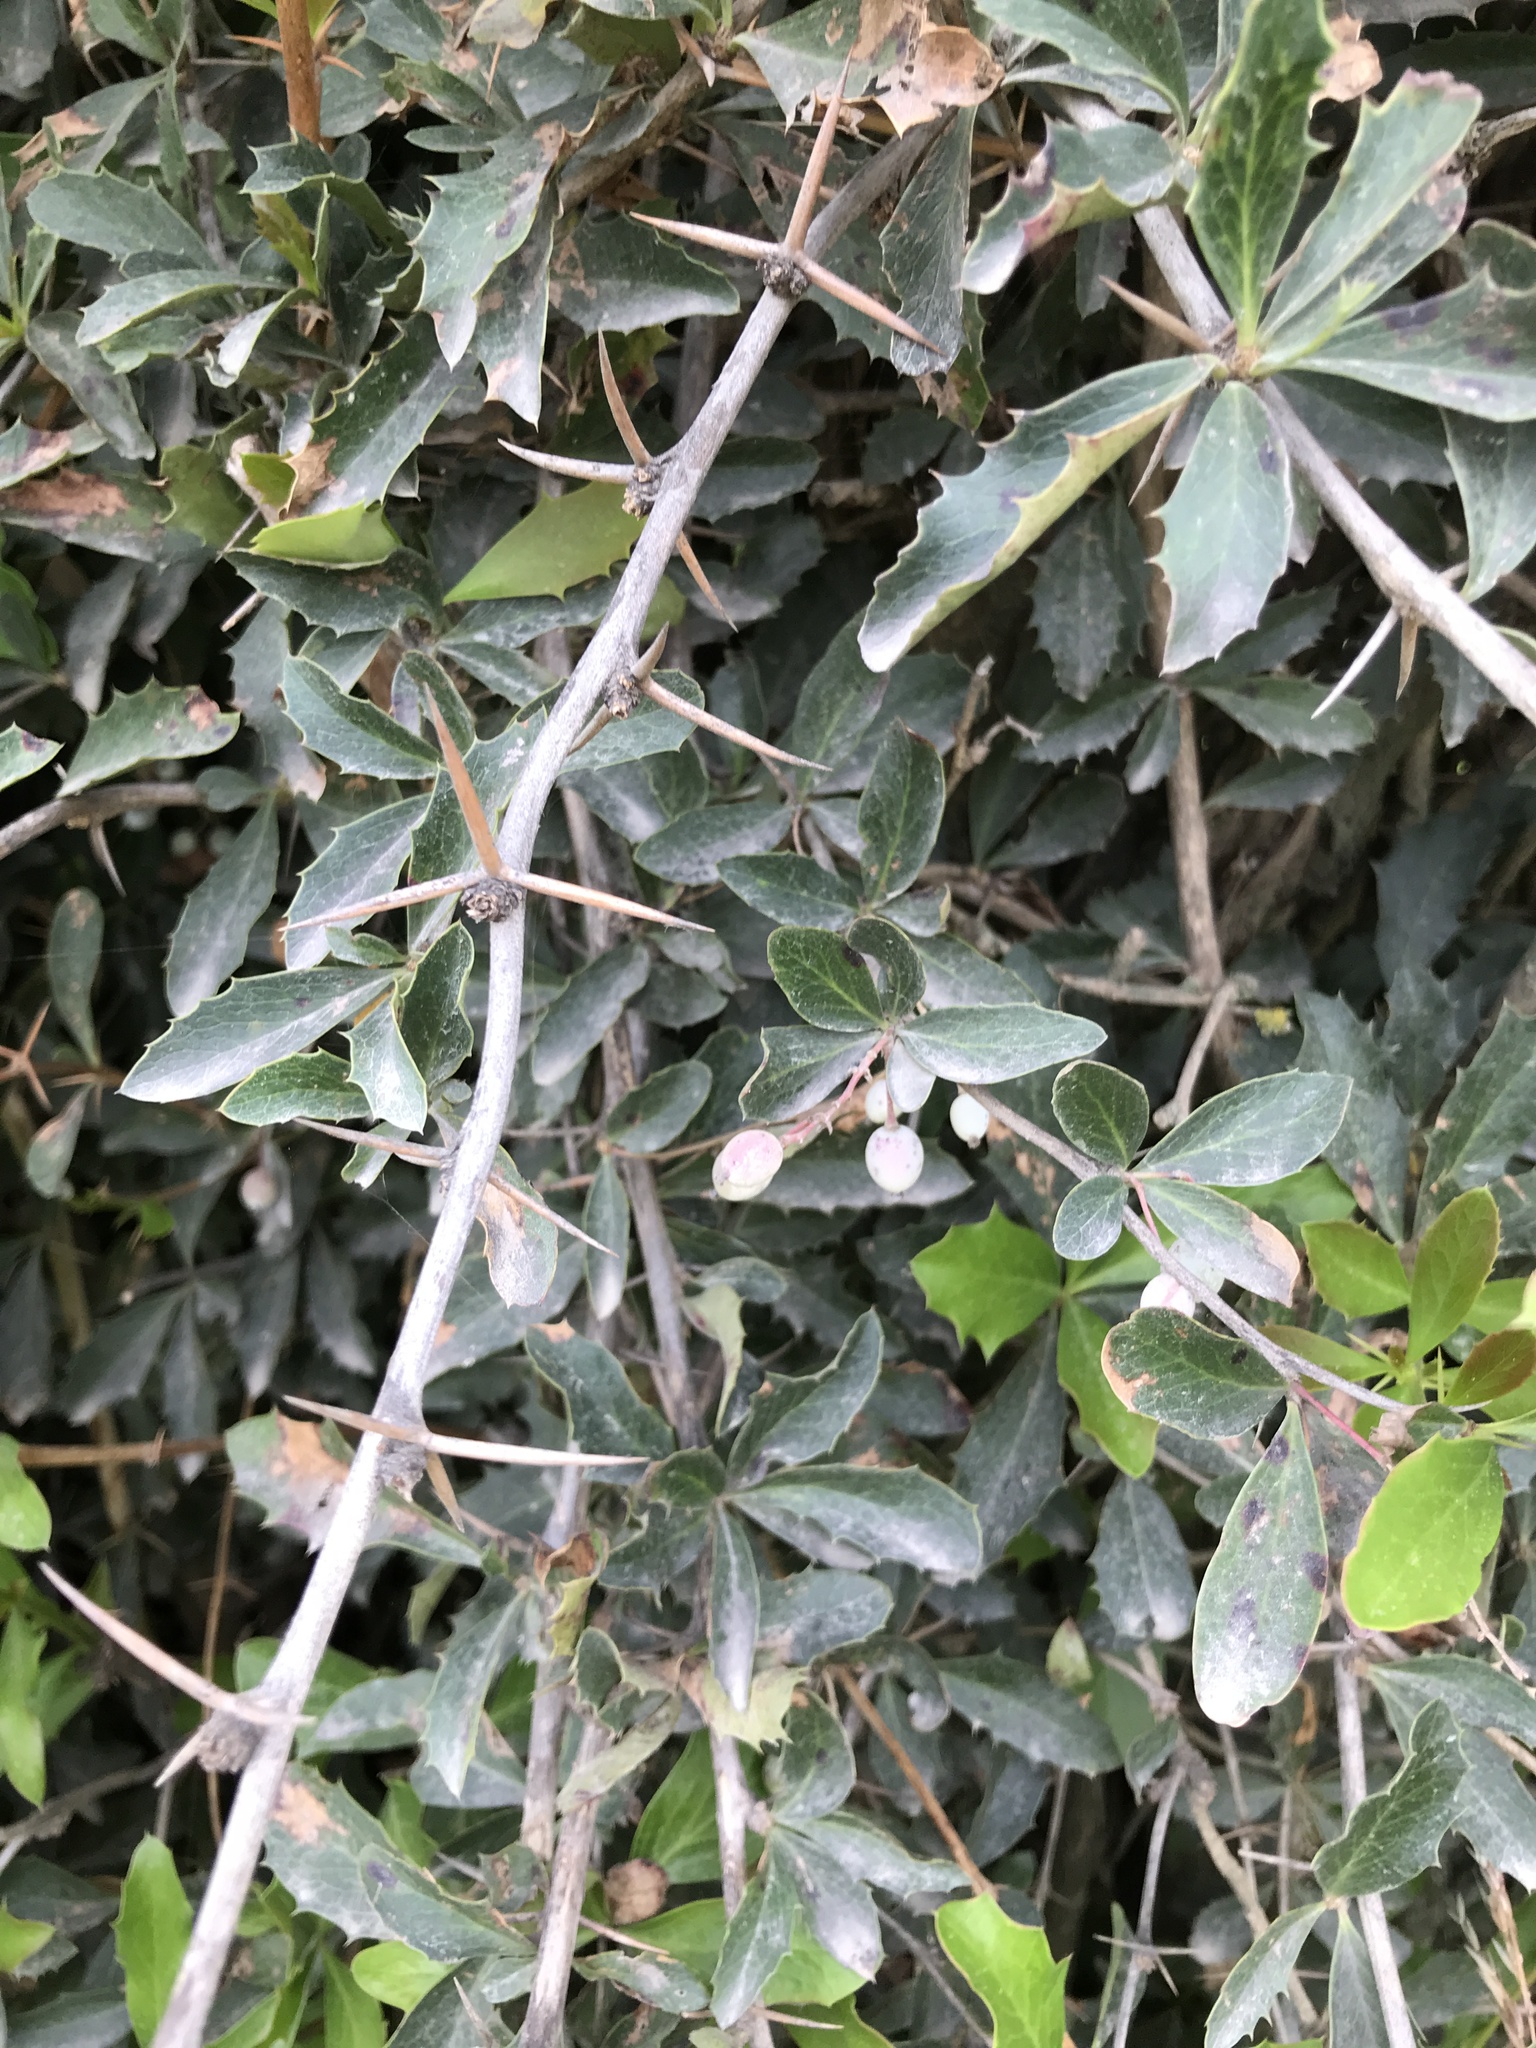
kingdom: Plantae
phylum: Tracheophyta
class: Magnoliopsida
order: Ranunculales
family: Berberidaceae
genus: Berberis
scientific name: Berberis glaucocarpa
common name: Great barberry
